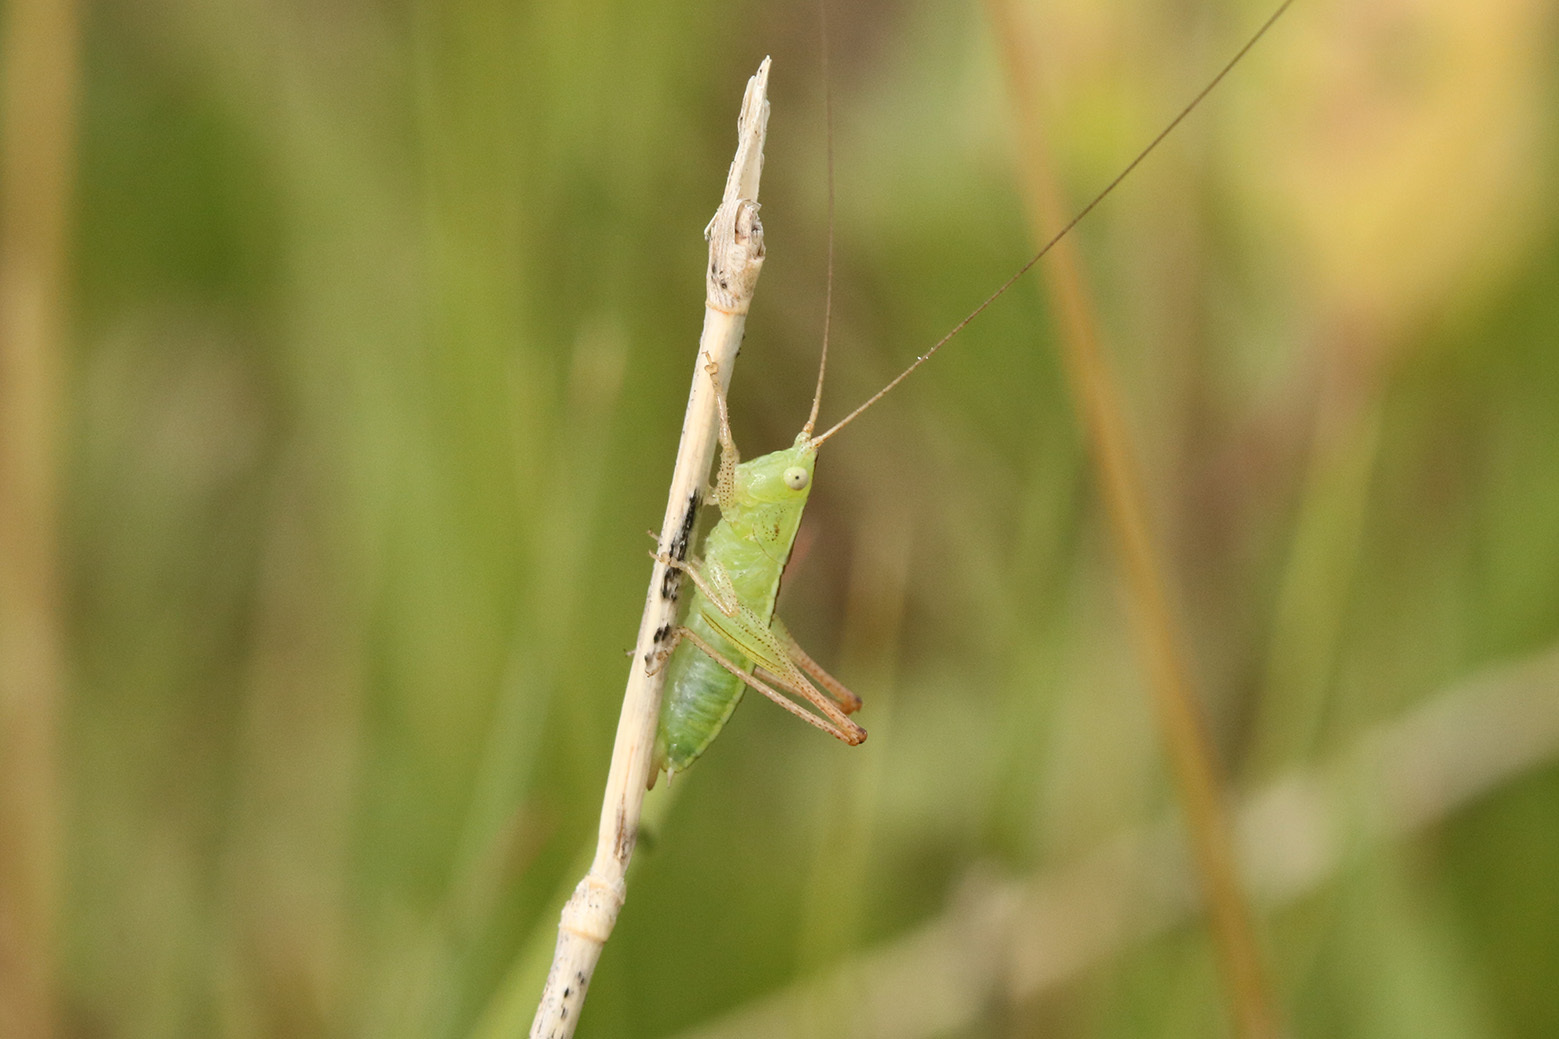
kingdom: Animalia
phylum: Arthropoda
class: Insecta
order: Orthoptera
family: Tettigoniidae
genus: Conocephalus
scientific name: Conocephalus longipes
